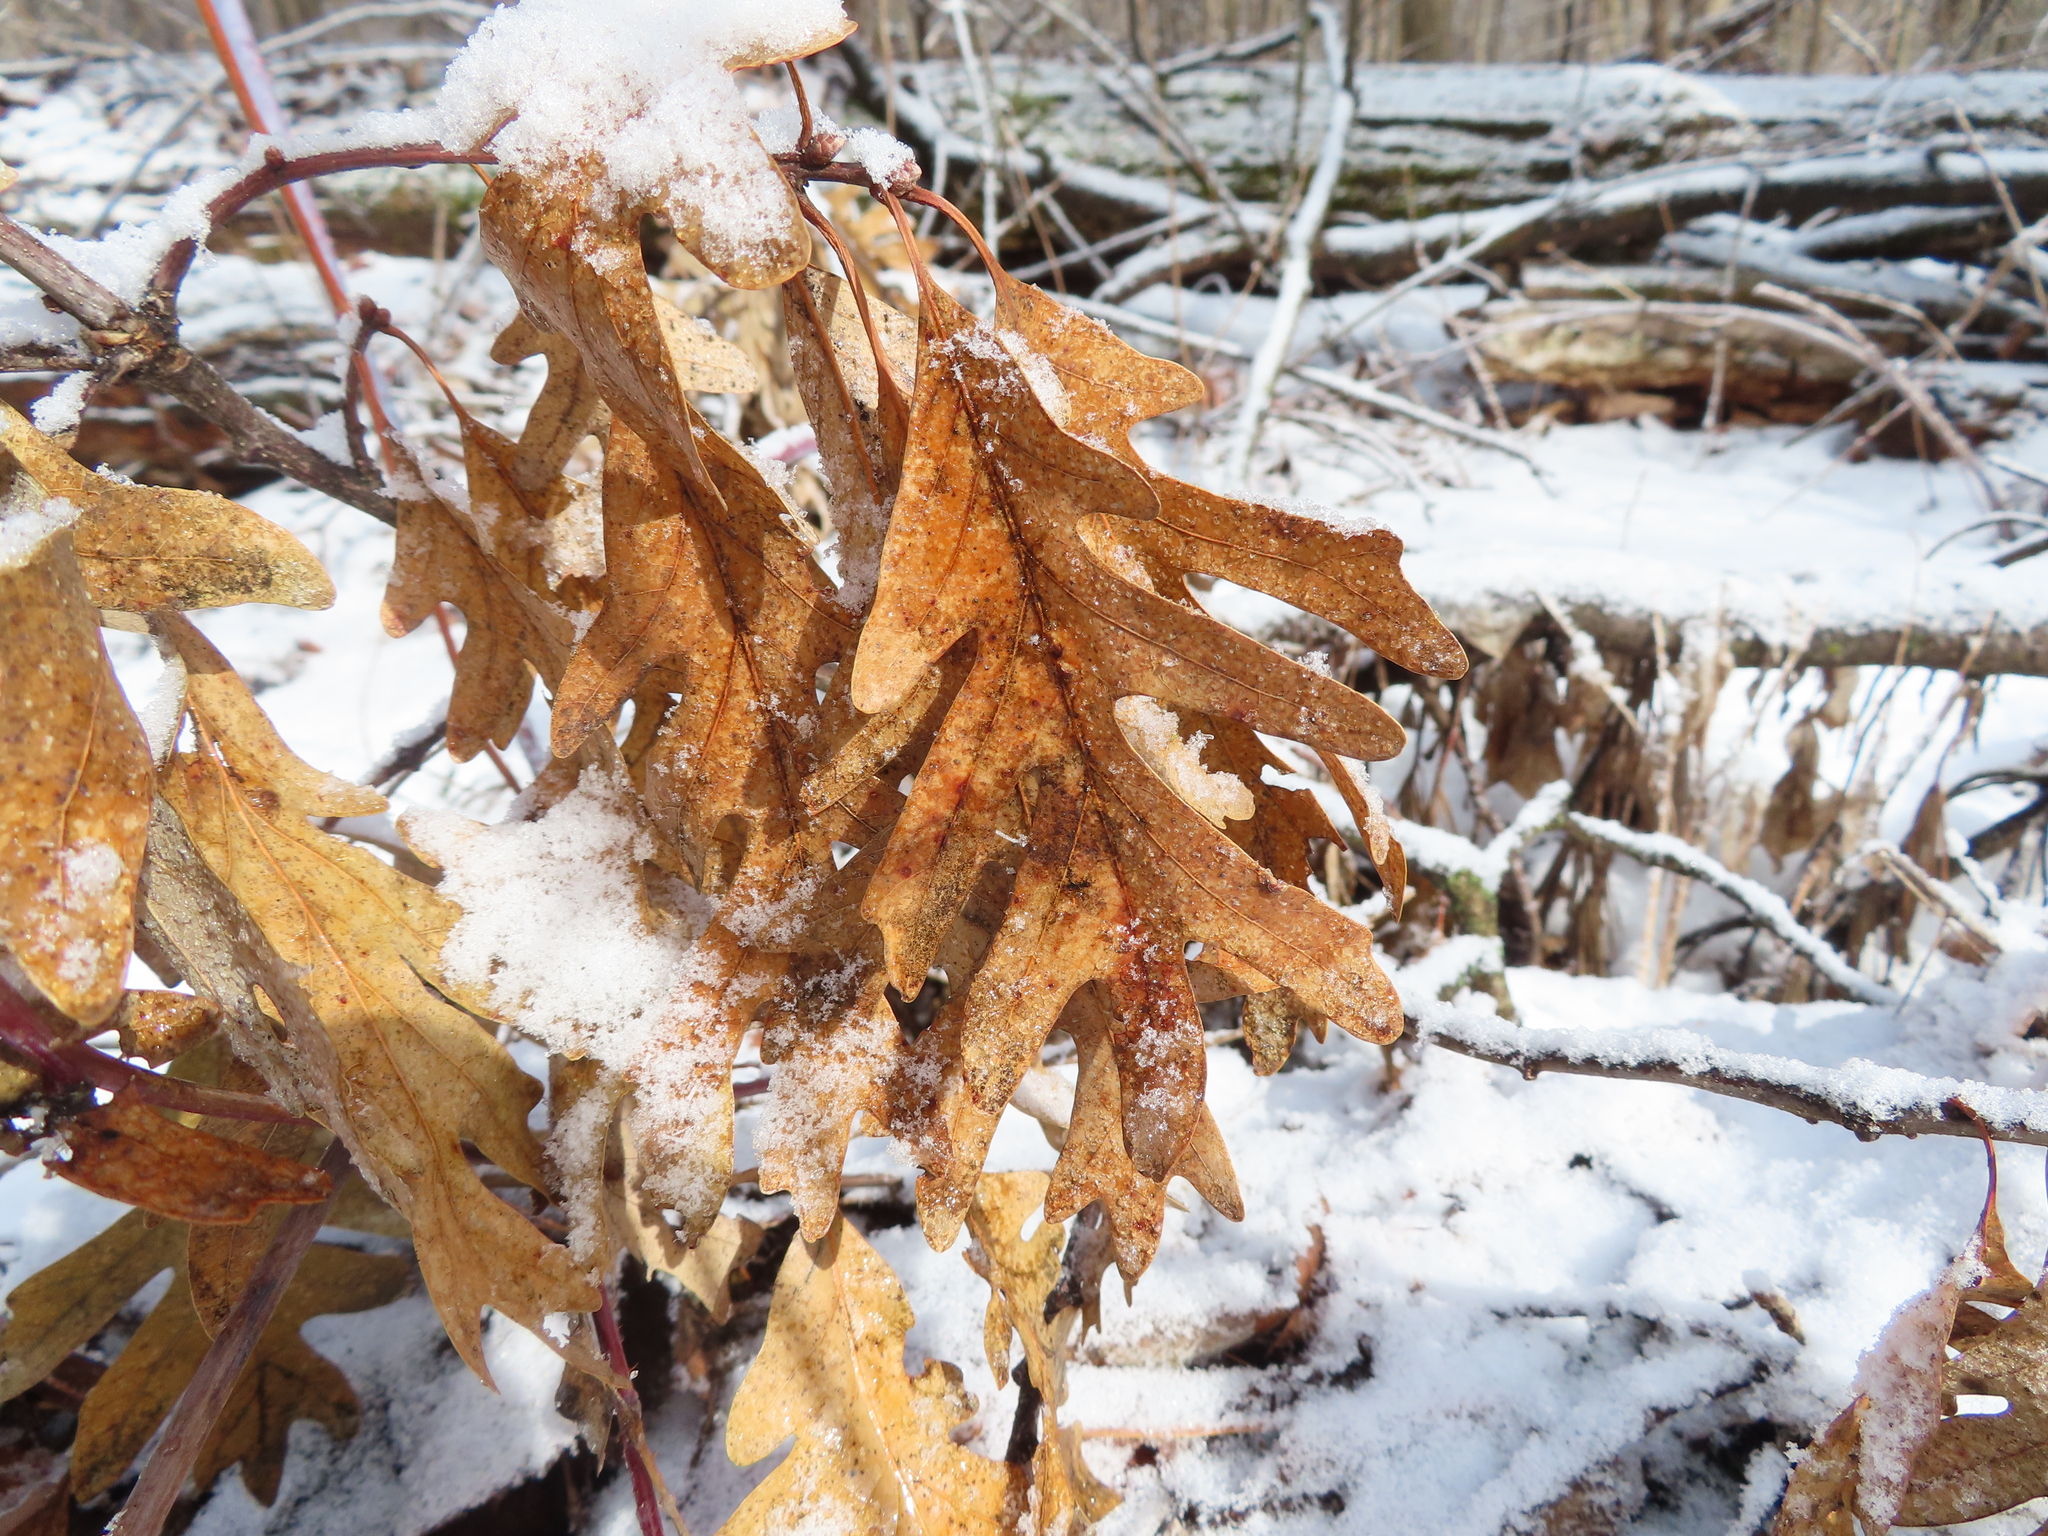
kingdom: Plantae
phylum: Tracheophyta
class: Magnoliopsida
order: Fagales
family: Fagaceae
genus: Quercus
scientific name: Quercus alba
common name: White oak
